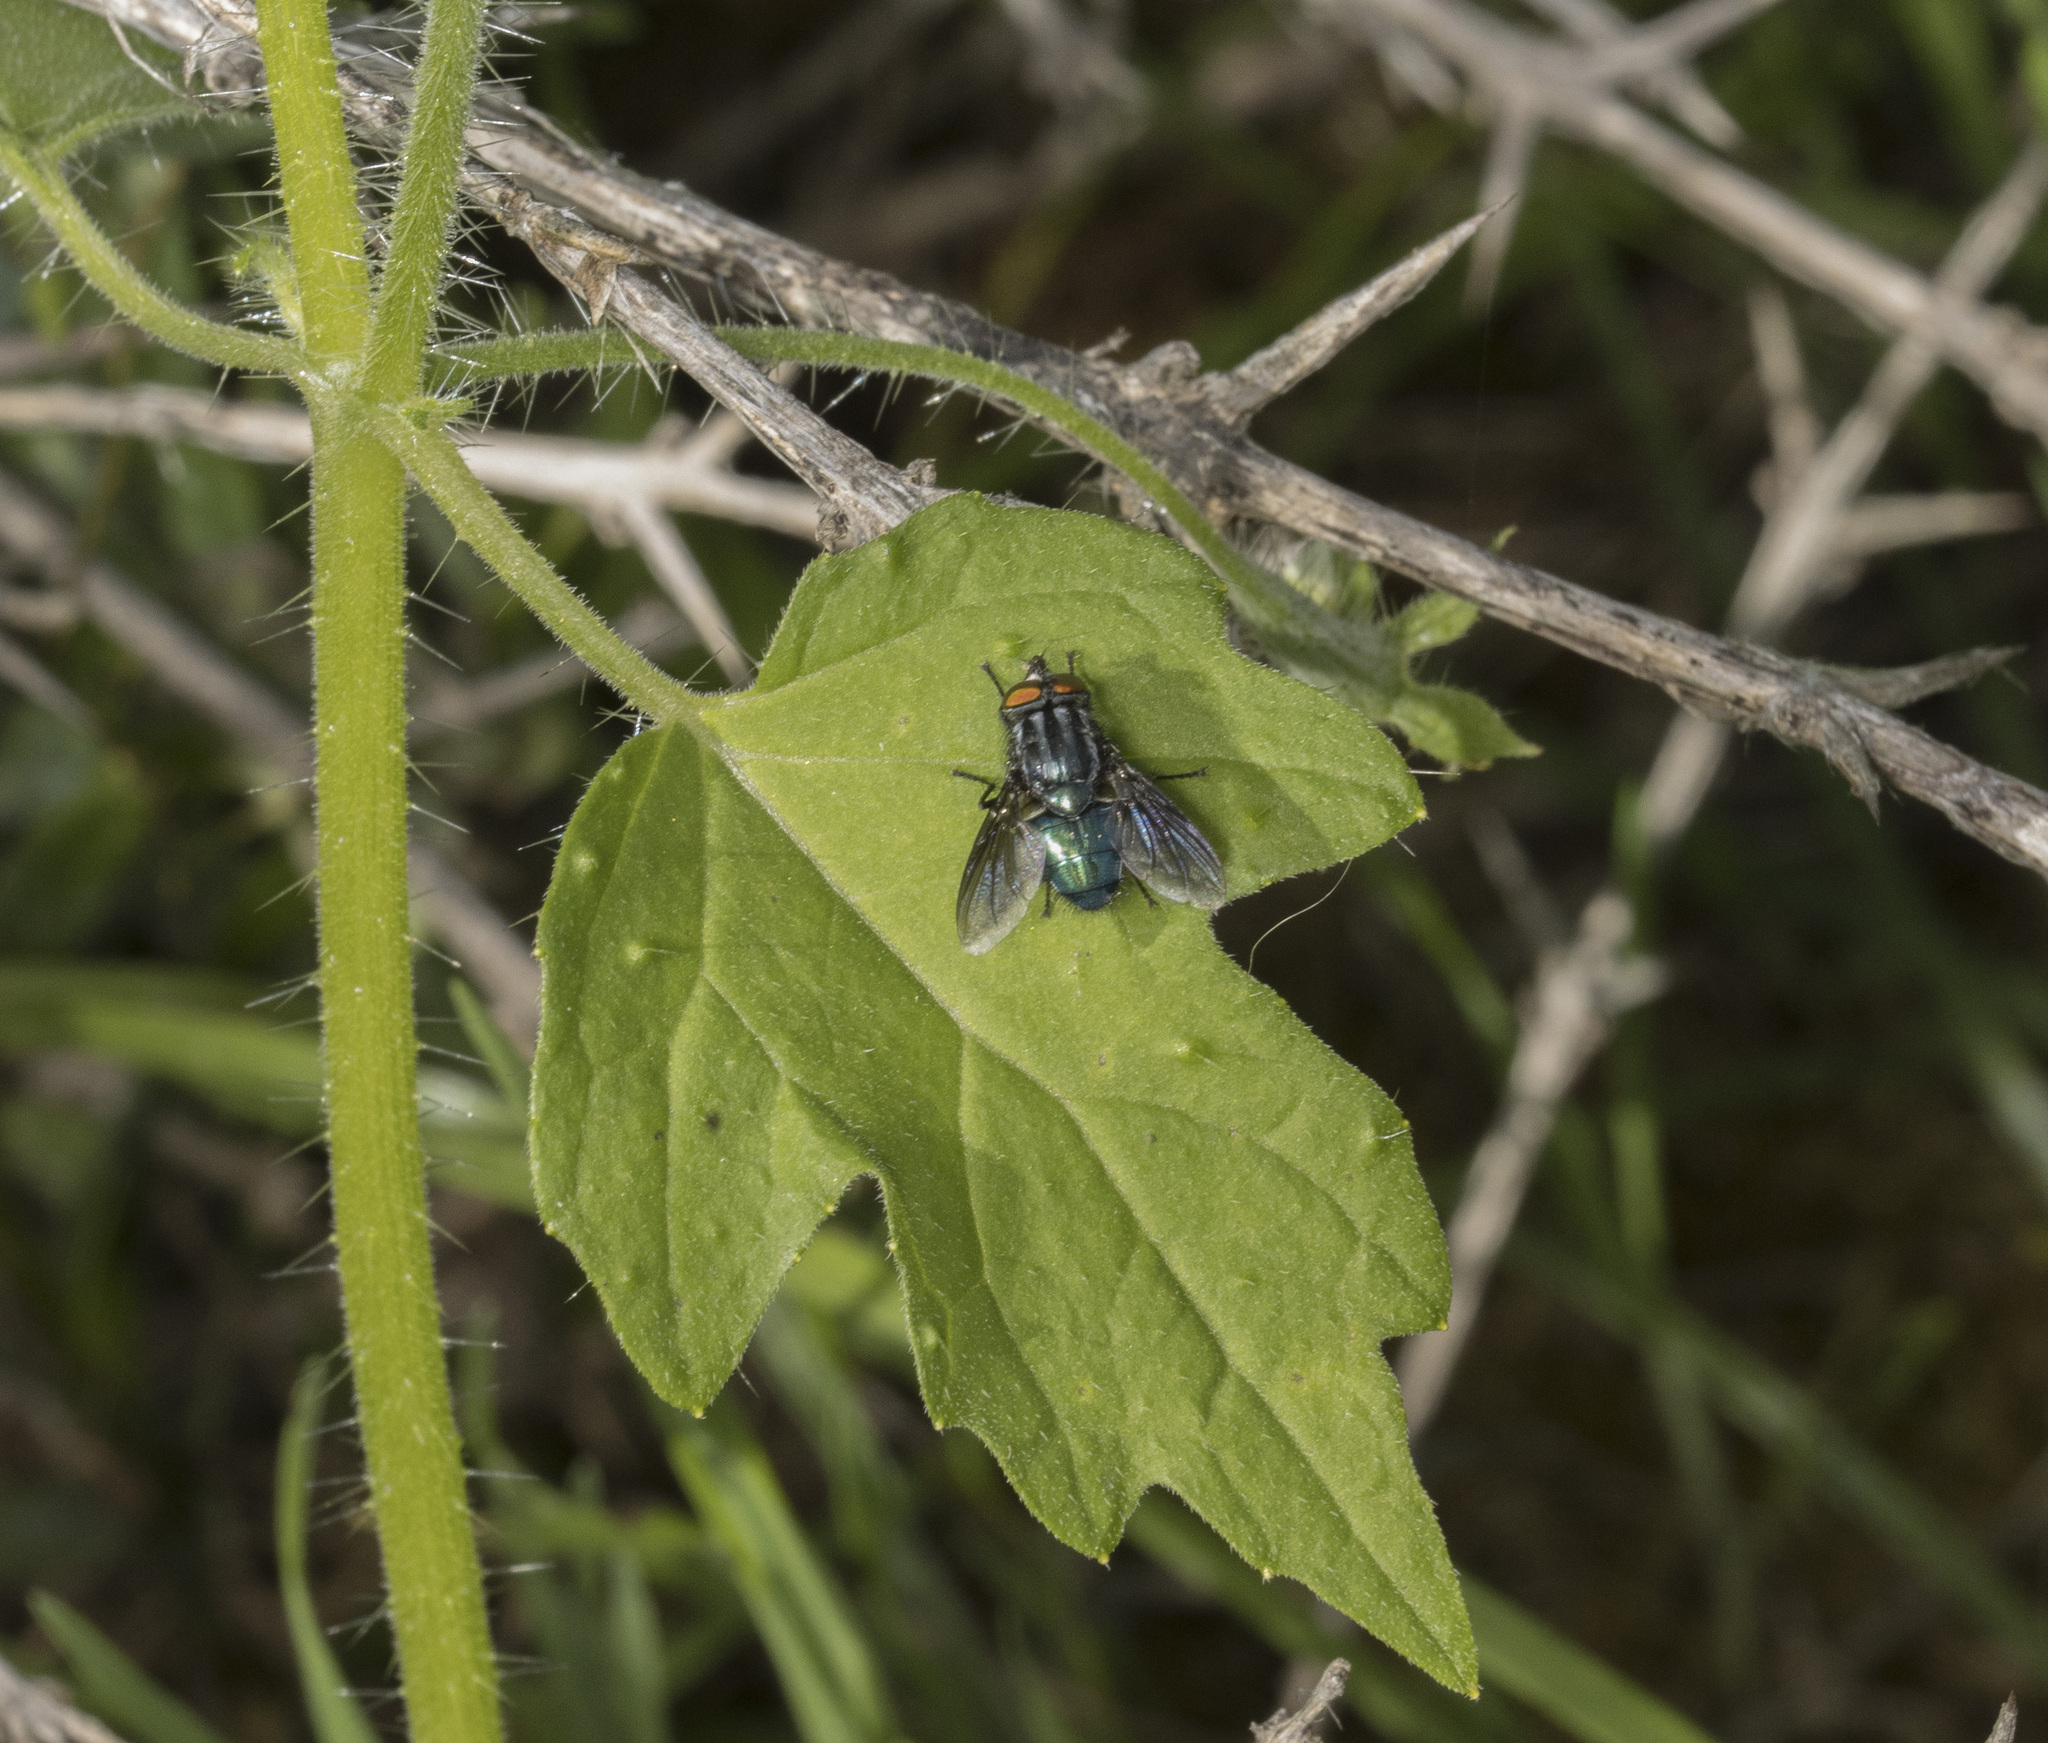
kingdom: Animalia
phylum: Arthropoda
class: Insecta
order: Diptera
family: Calliphoridae
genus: Sarconesia
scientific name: Sarconesia magellanica
